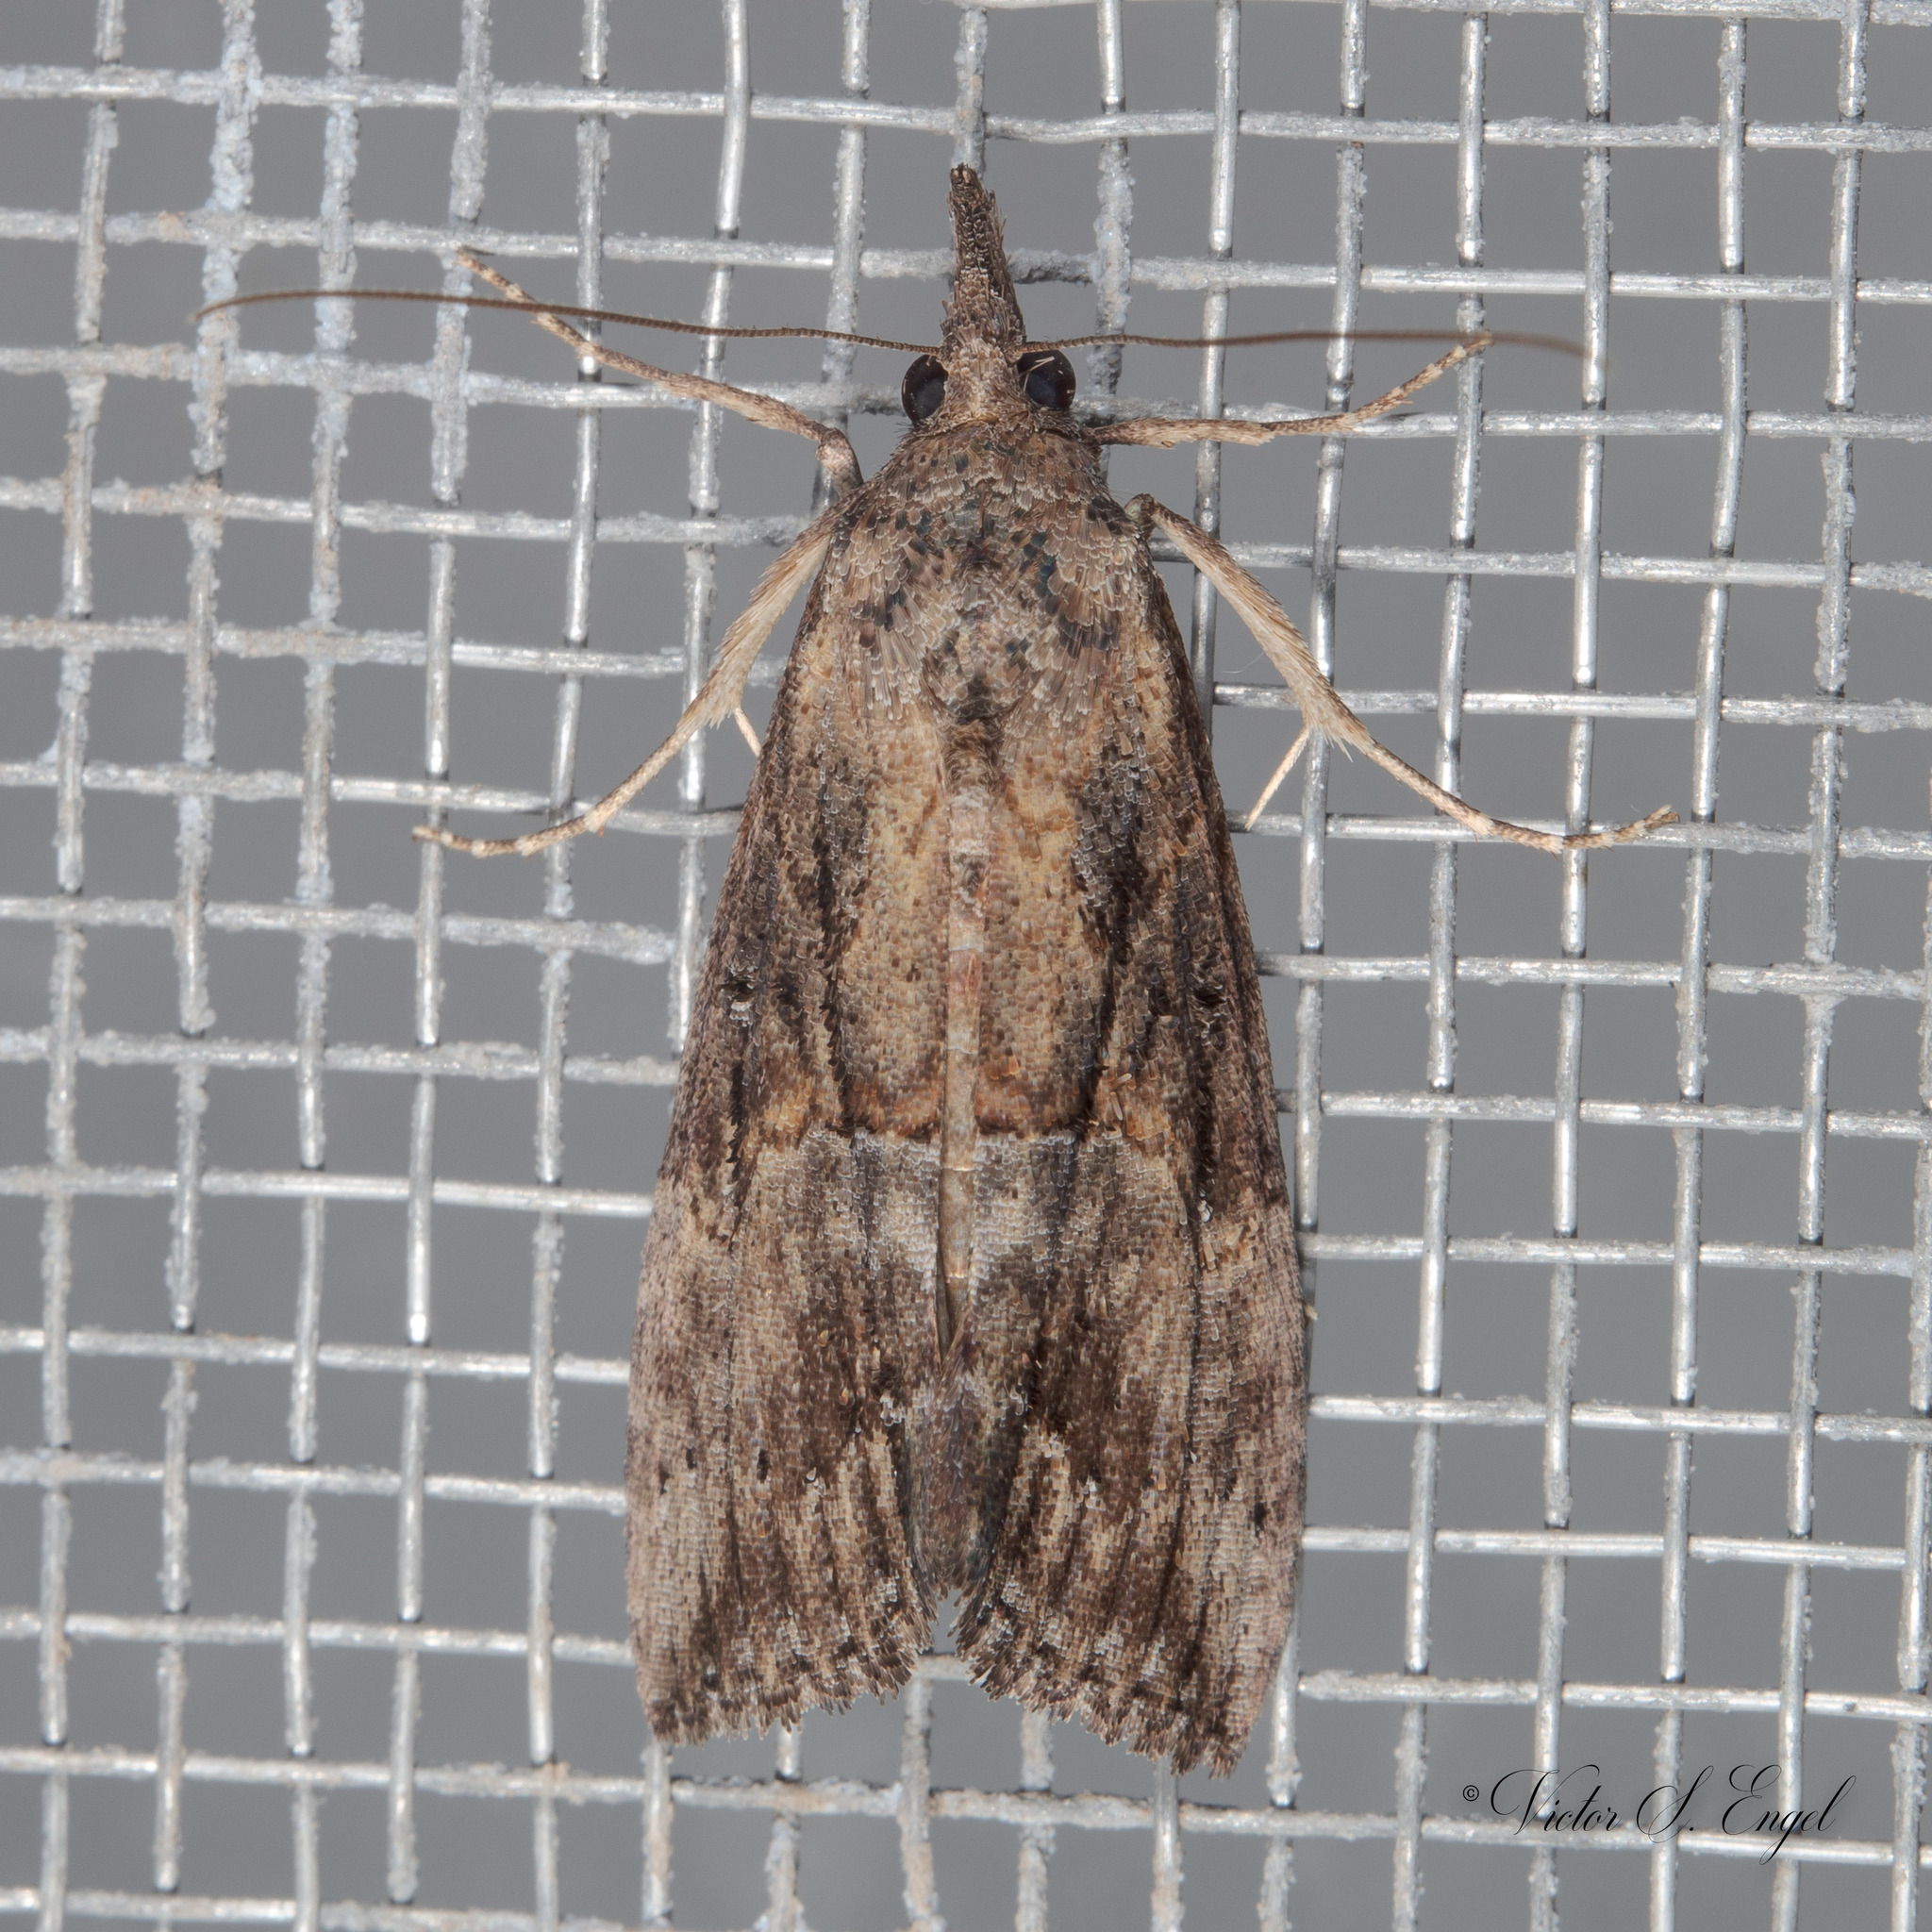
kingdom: Animalia
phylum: Arthropoda
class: Insecta
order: Lepidoptera
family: Erebidae
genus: Hypena
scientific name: Hypena scabra
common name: Green cloverworm
